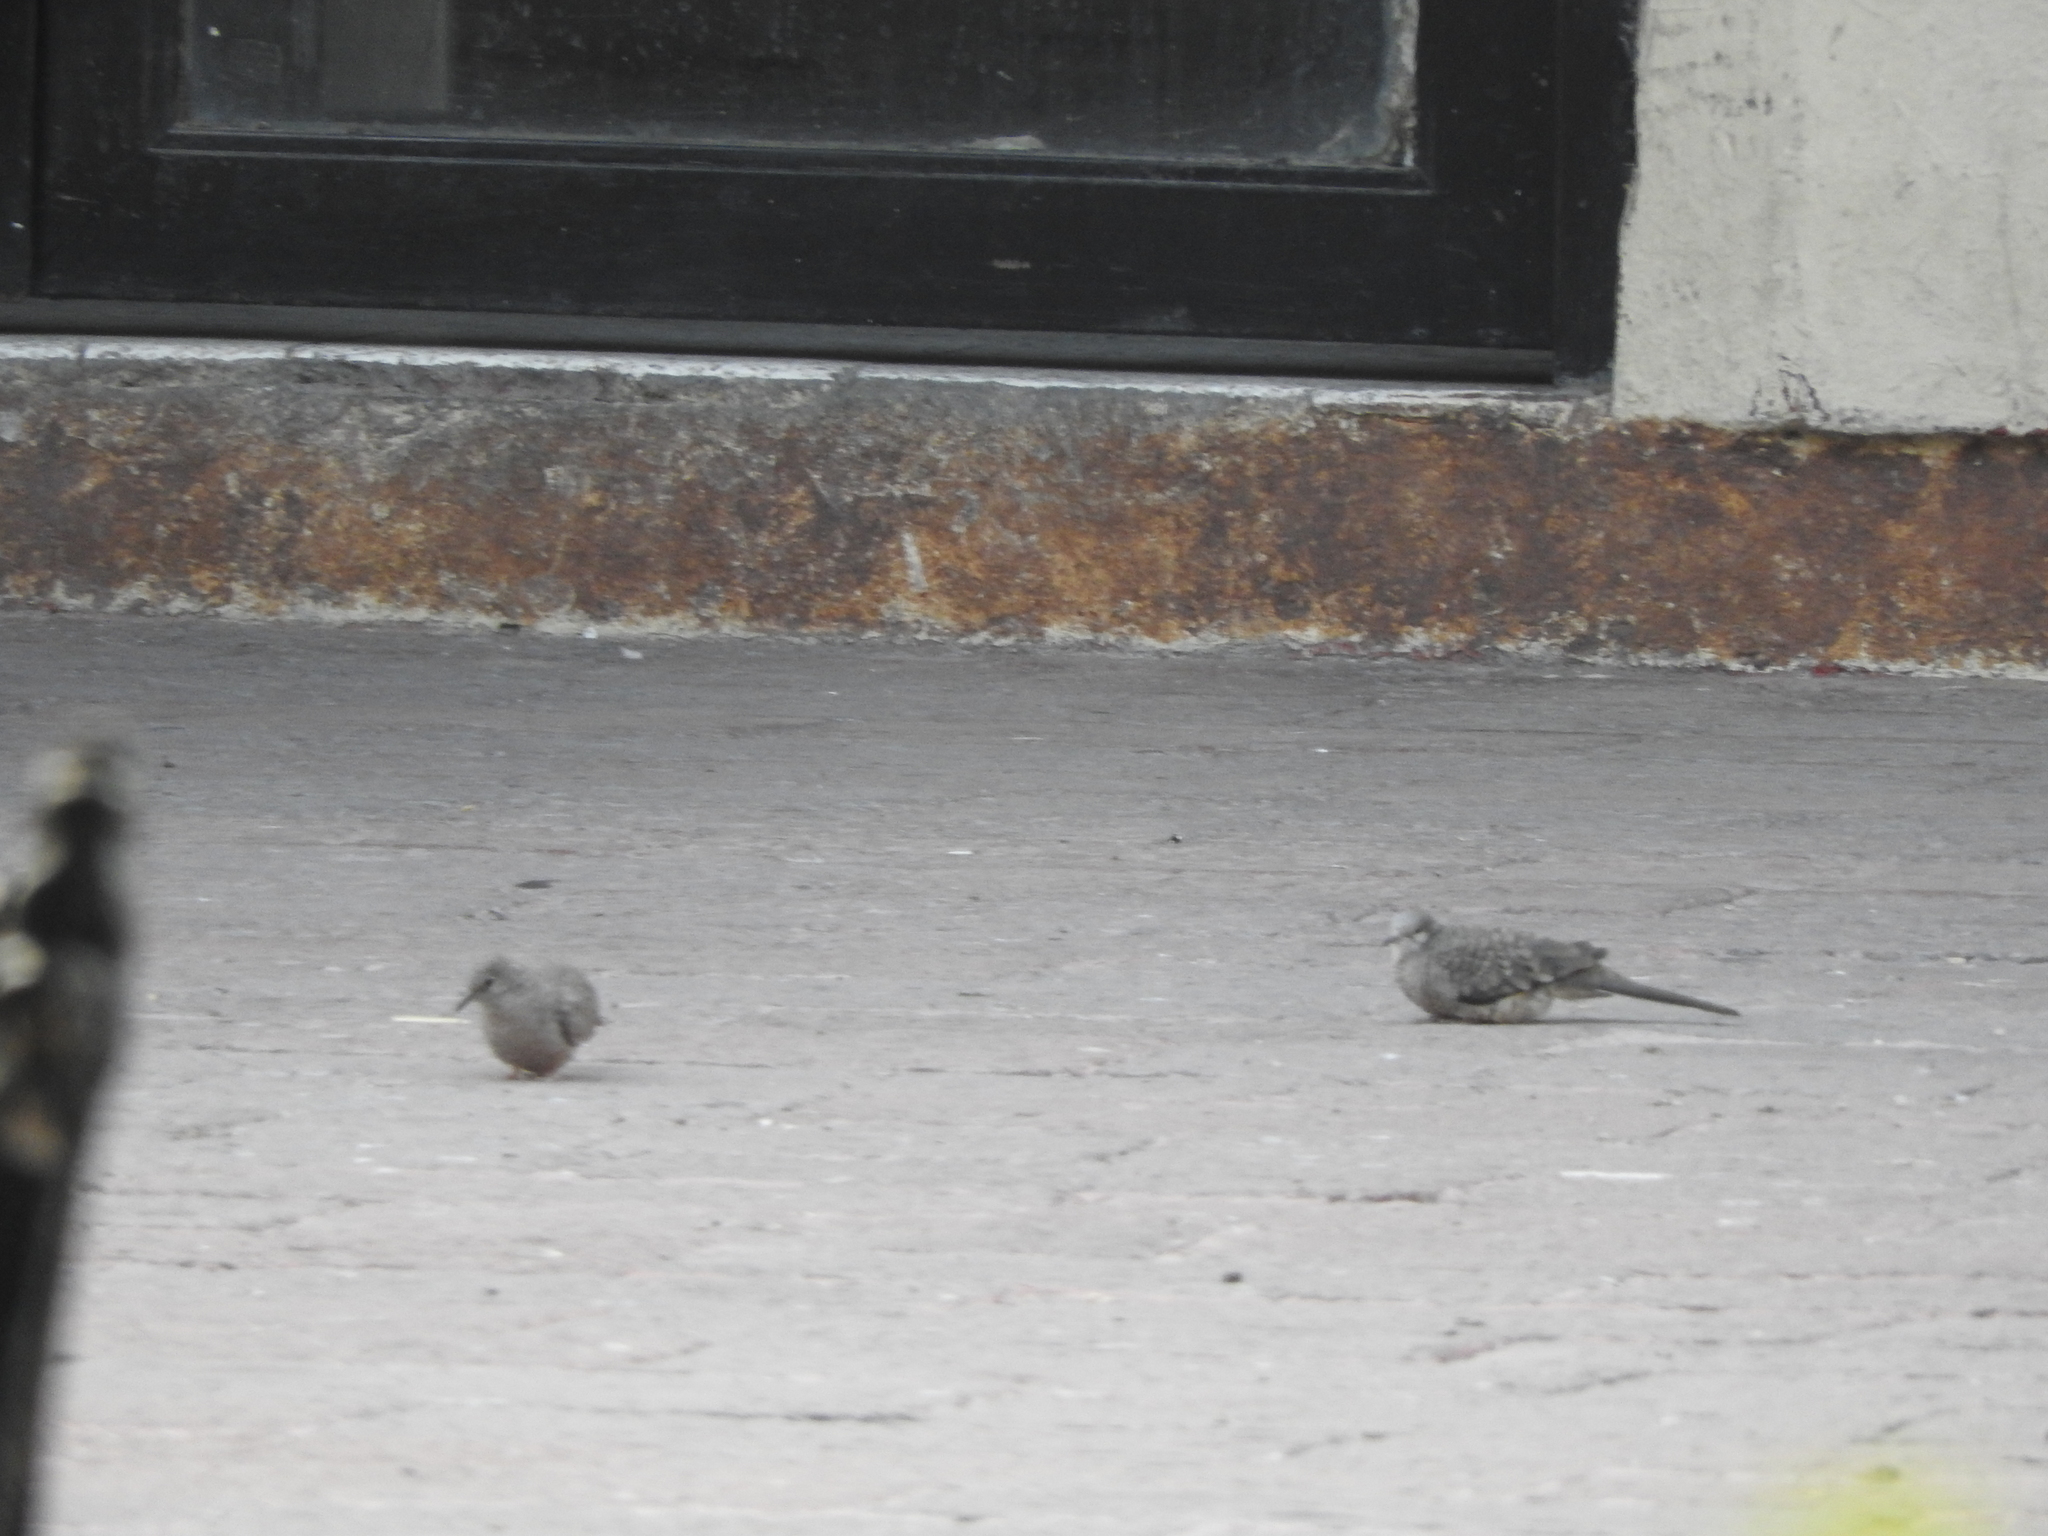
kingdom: Animalia
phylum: Chordata
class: Aves
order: Columbiformes
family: Columbidae
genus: Columbina
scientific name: Columbina inca
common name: Inca dove
